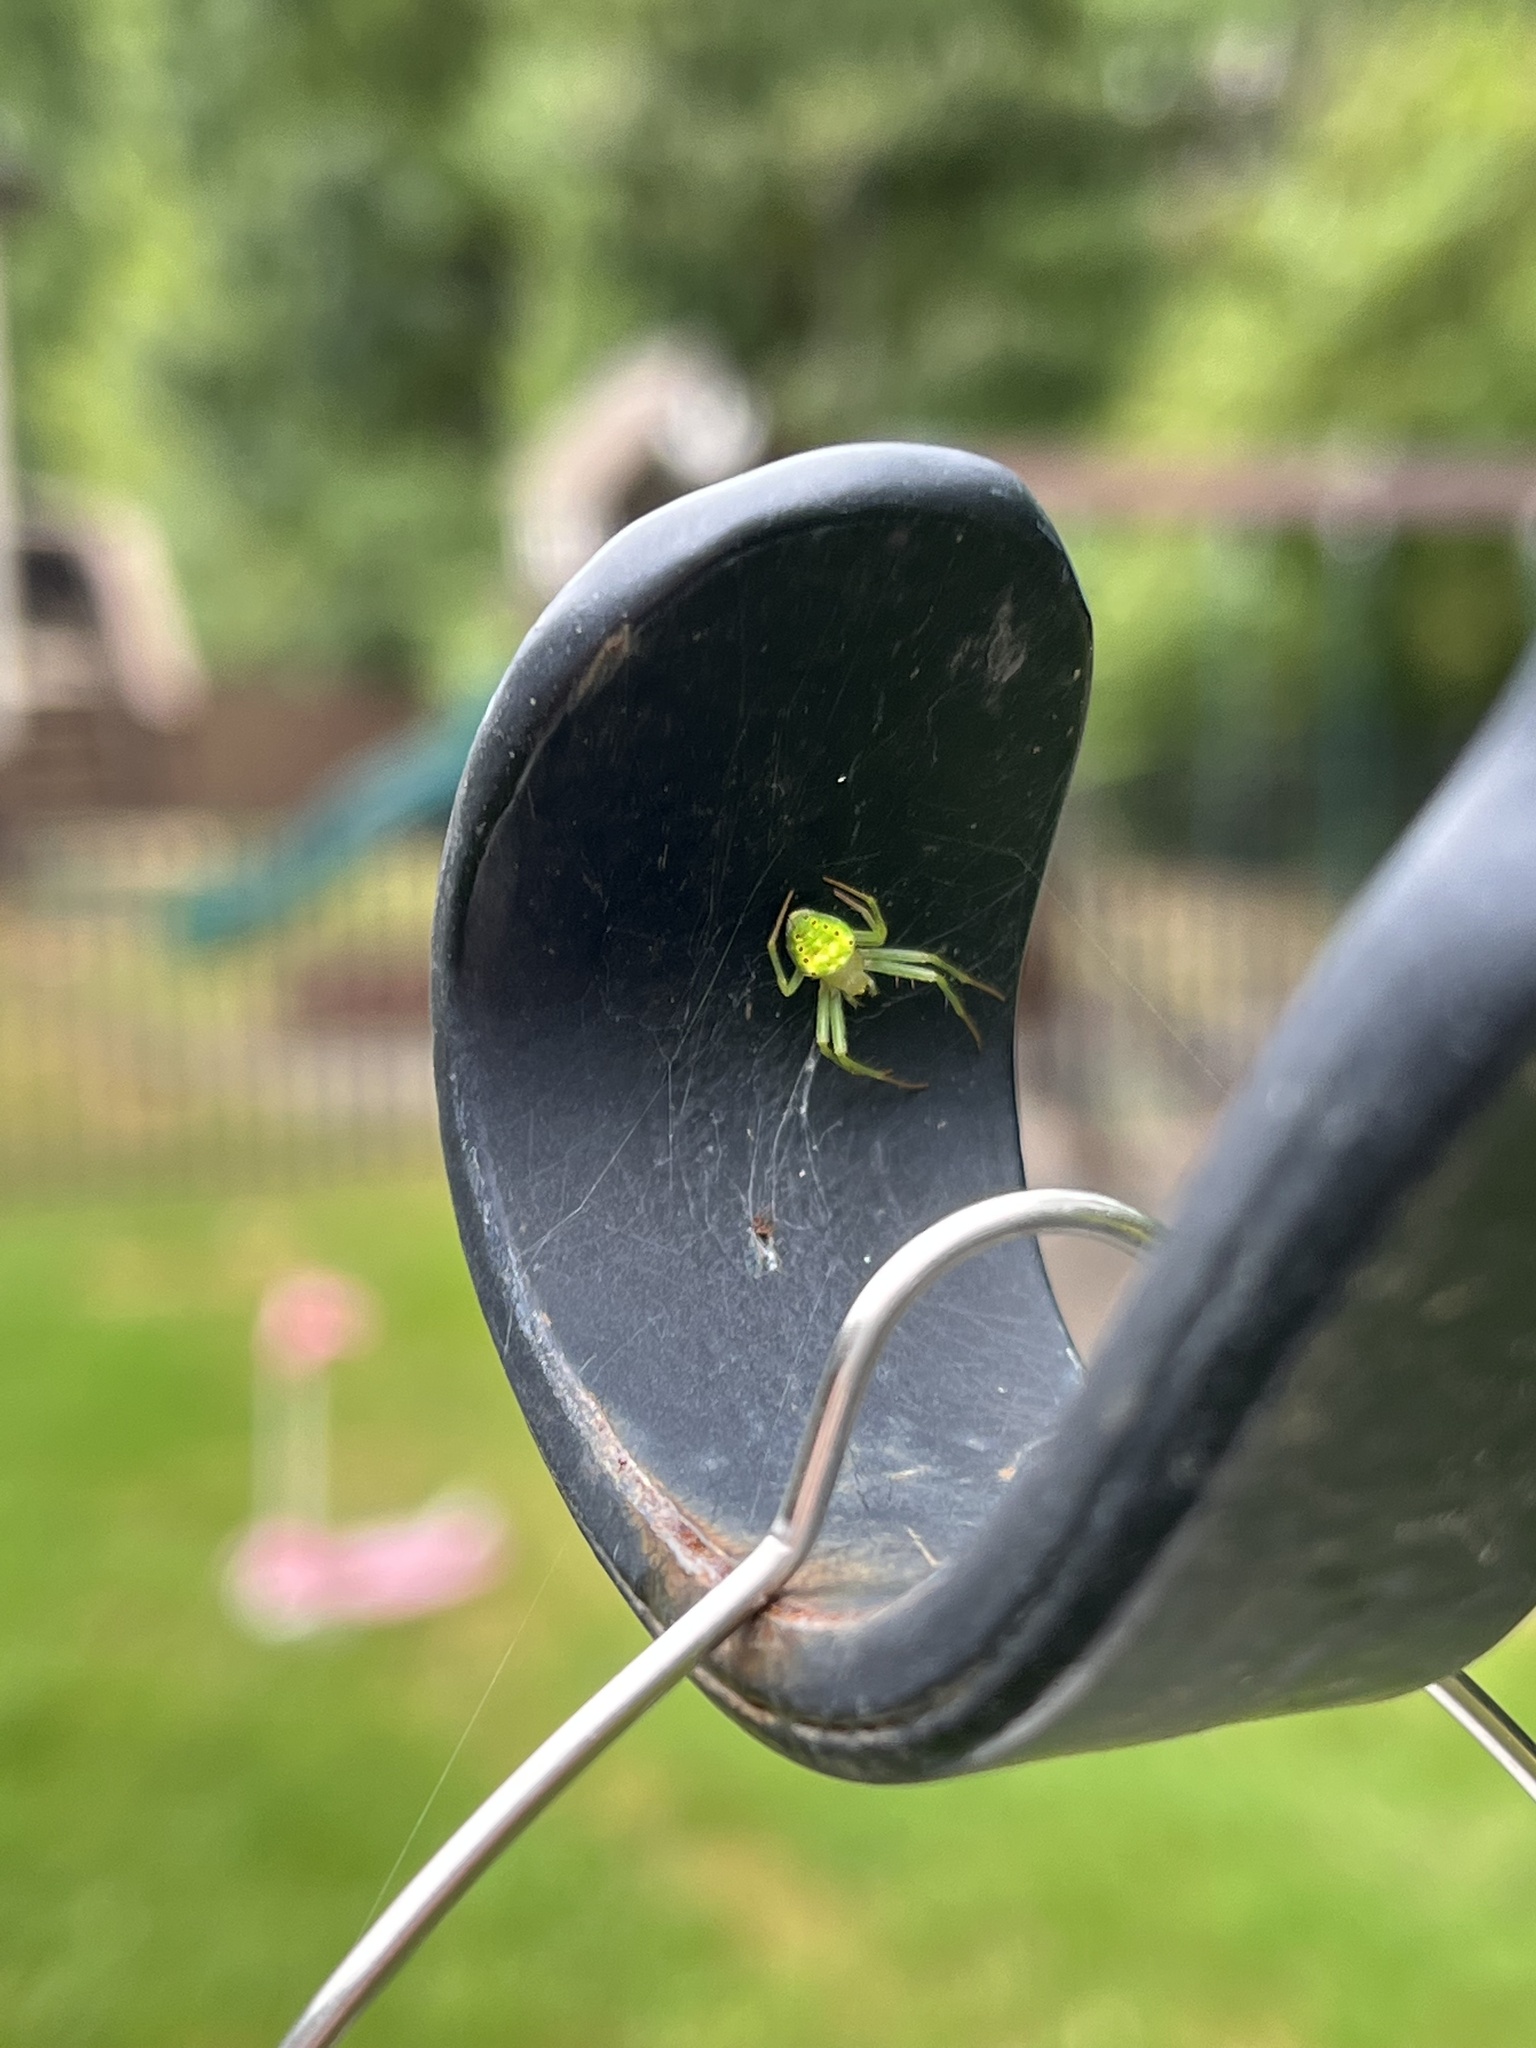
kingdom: Animalia
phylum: Arthropoda
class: Arachnida
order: Araneae
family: Araneidae
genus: Araneus
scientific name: Araneus cingulatus
